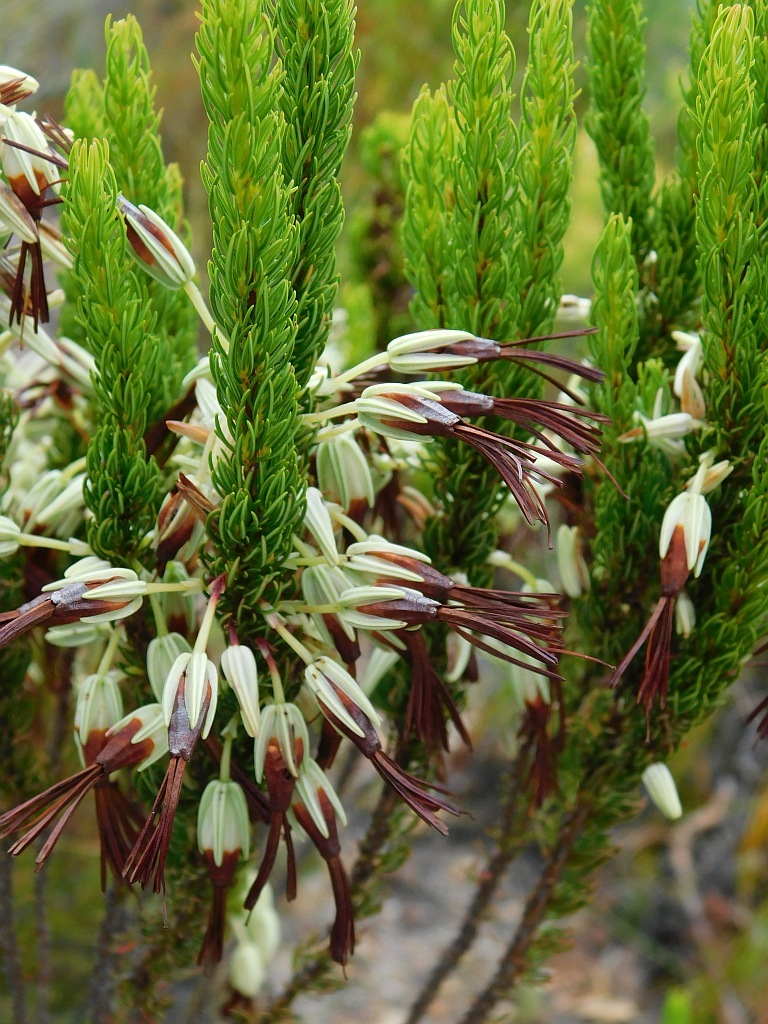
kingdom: Plantae
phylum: Tracheophyta
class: Magnoliopsida
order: Ericales
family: Ericaceae
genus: Erica
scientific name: Erica plukenetii
